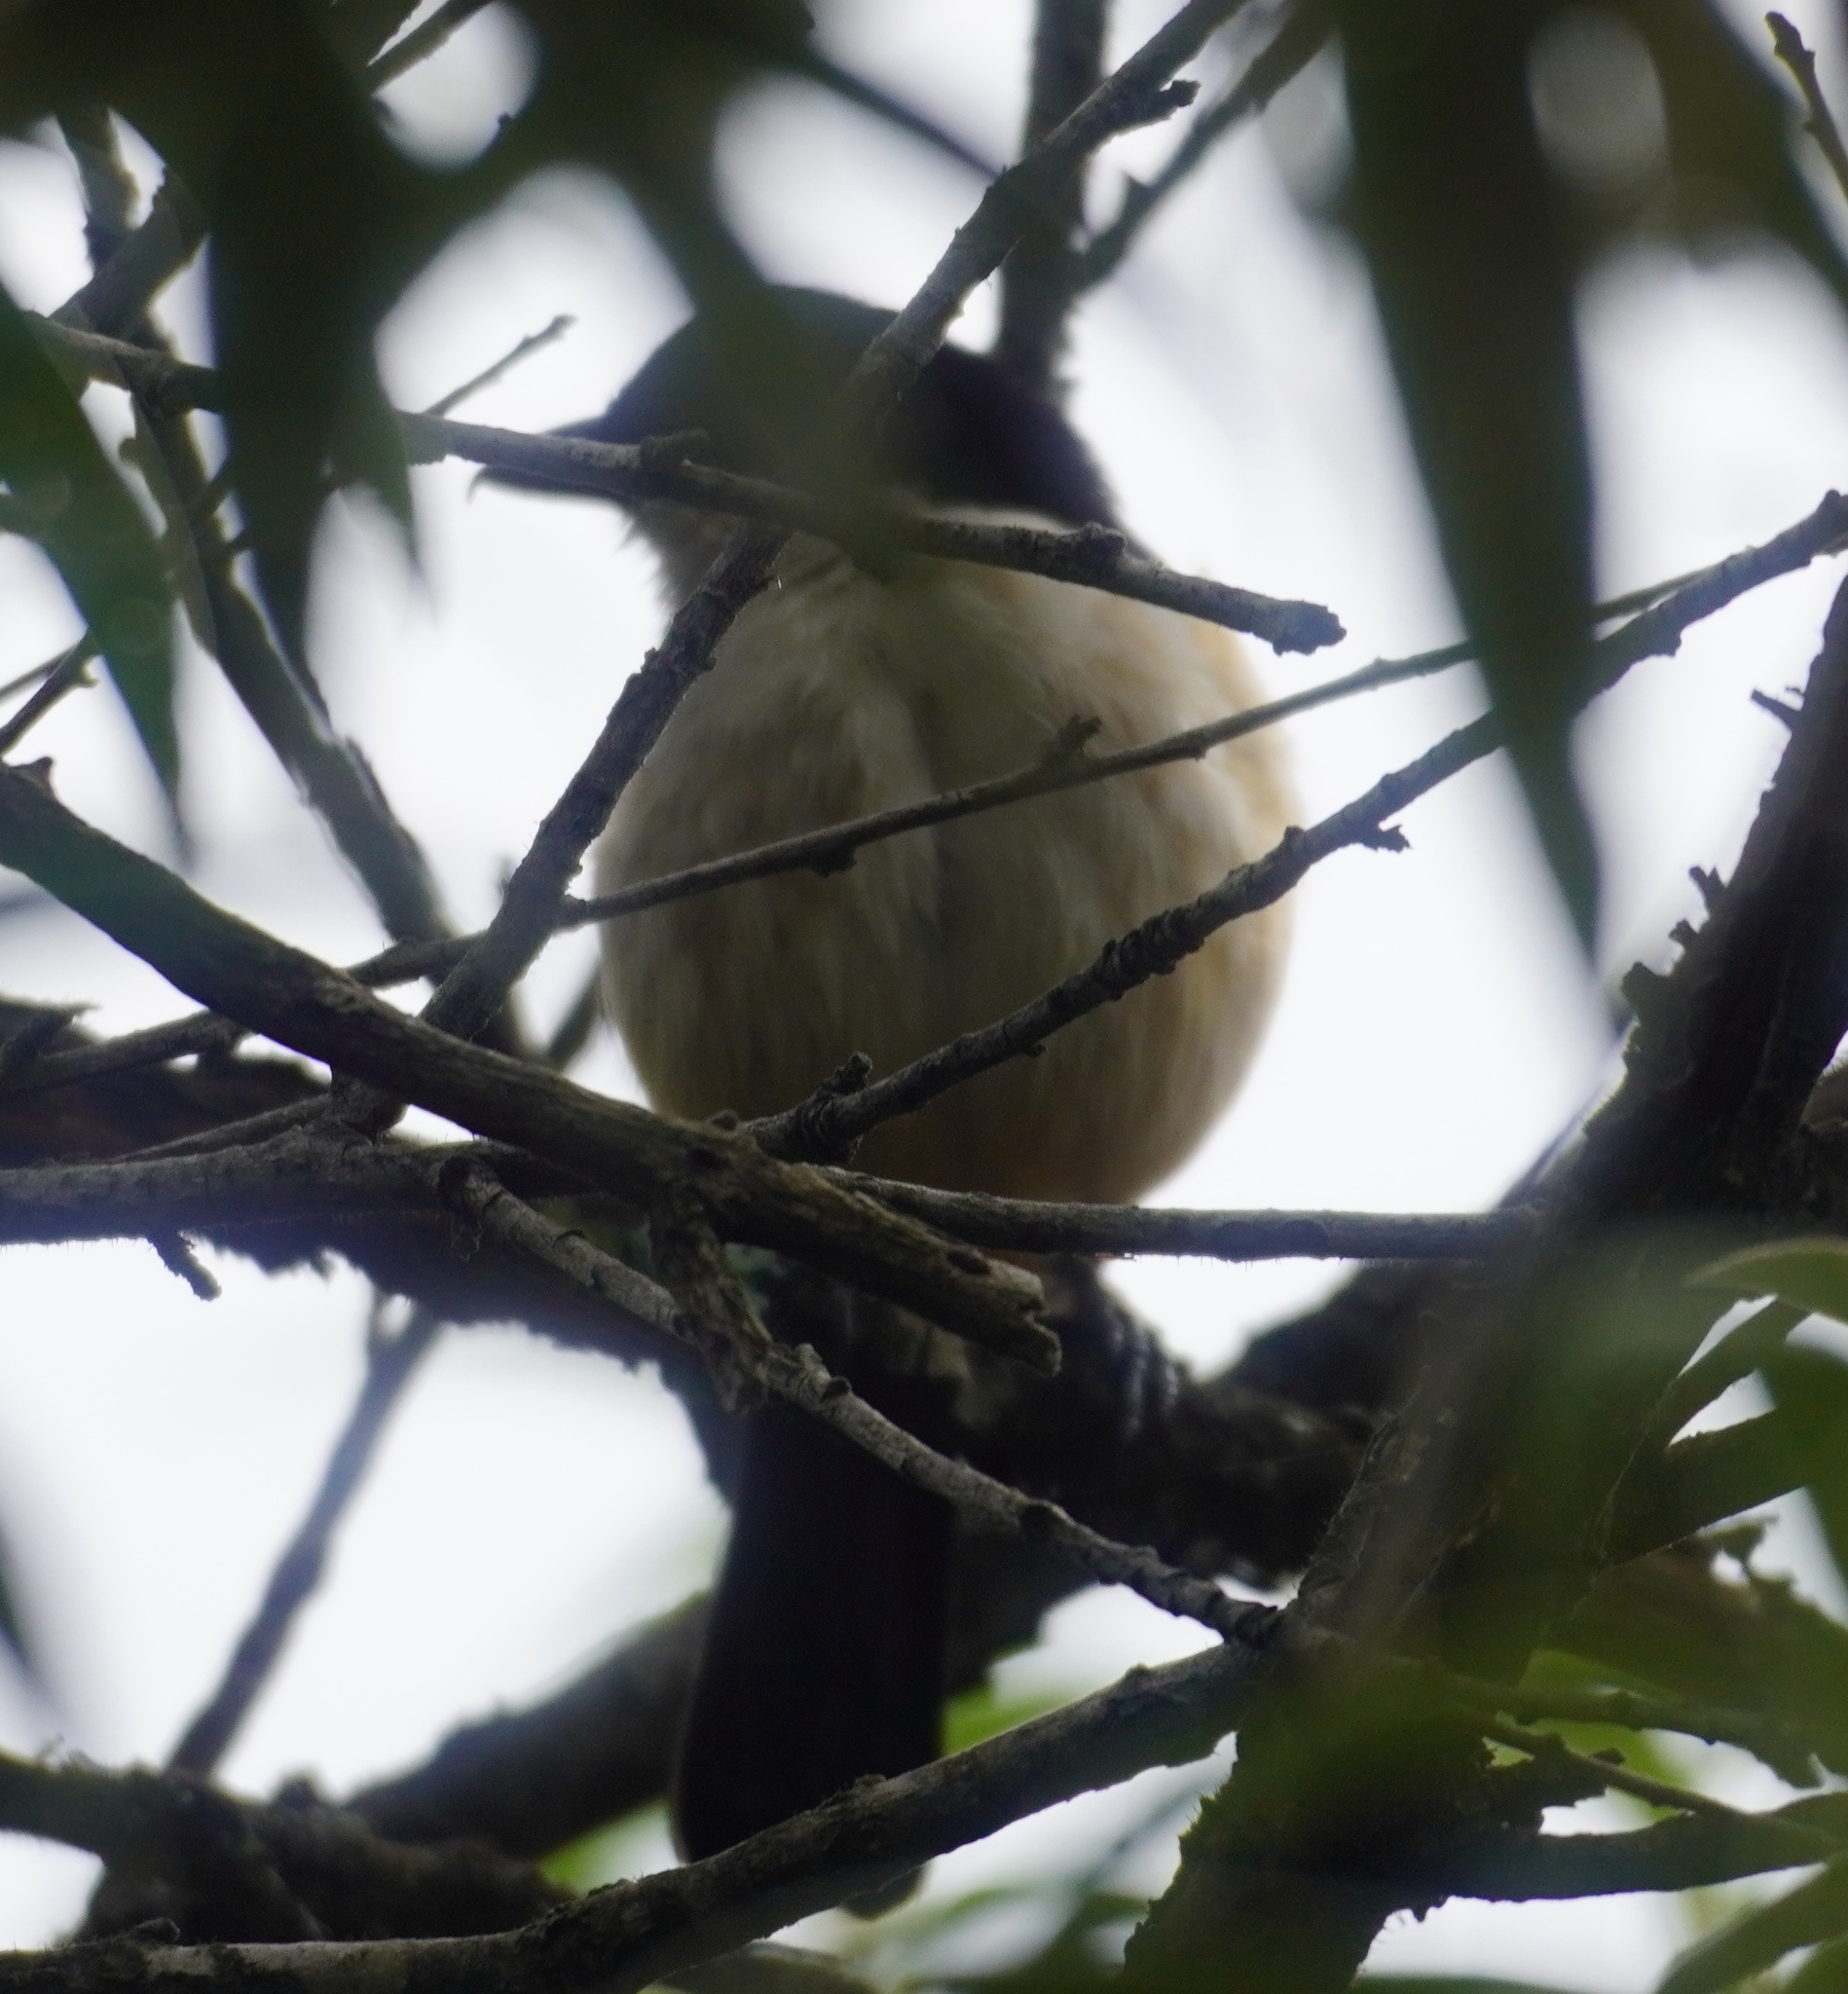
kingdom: Animalia
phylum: Chordata
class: Aves
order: Passeriformes
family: Malaconotidae
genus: Laniarius
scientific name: Laniarius ferrugineus
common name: Southern boubou
